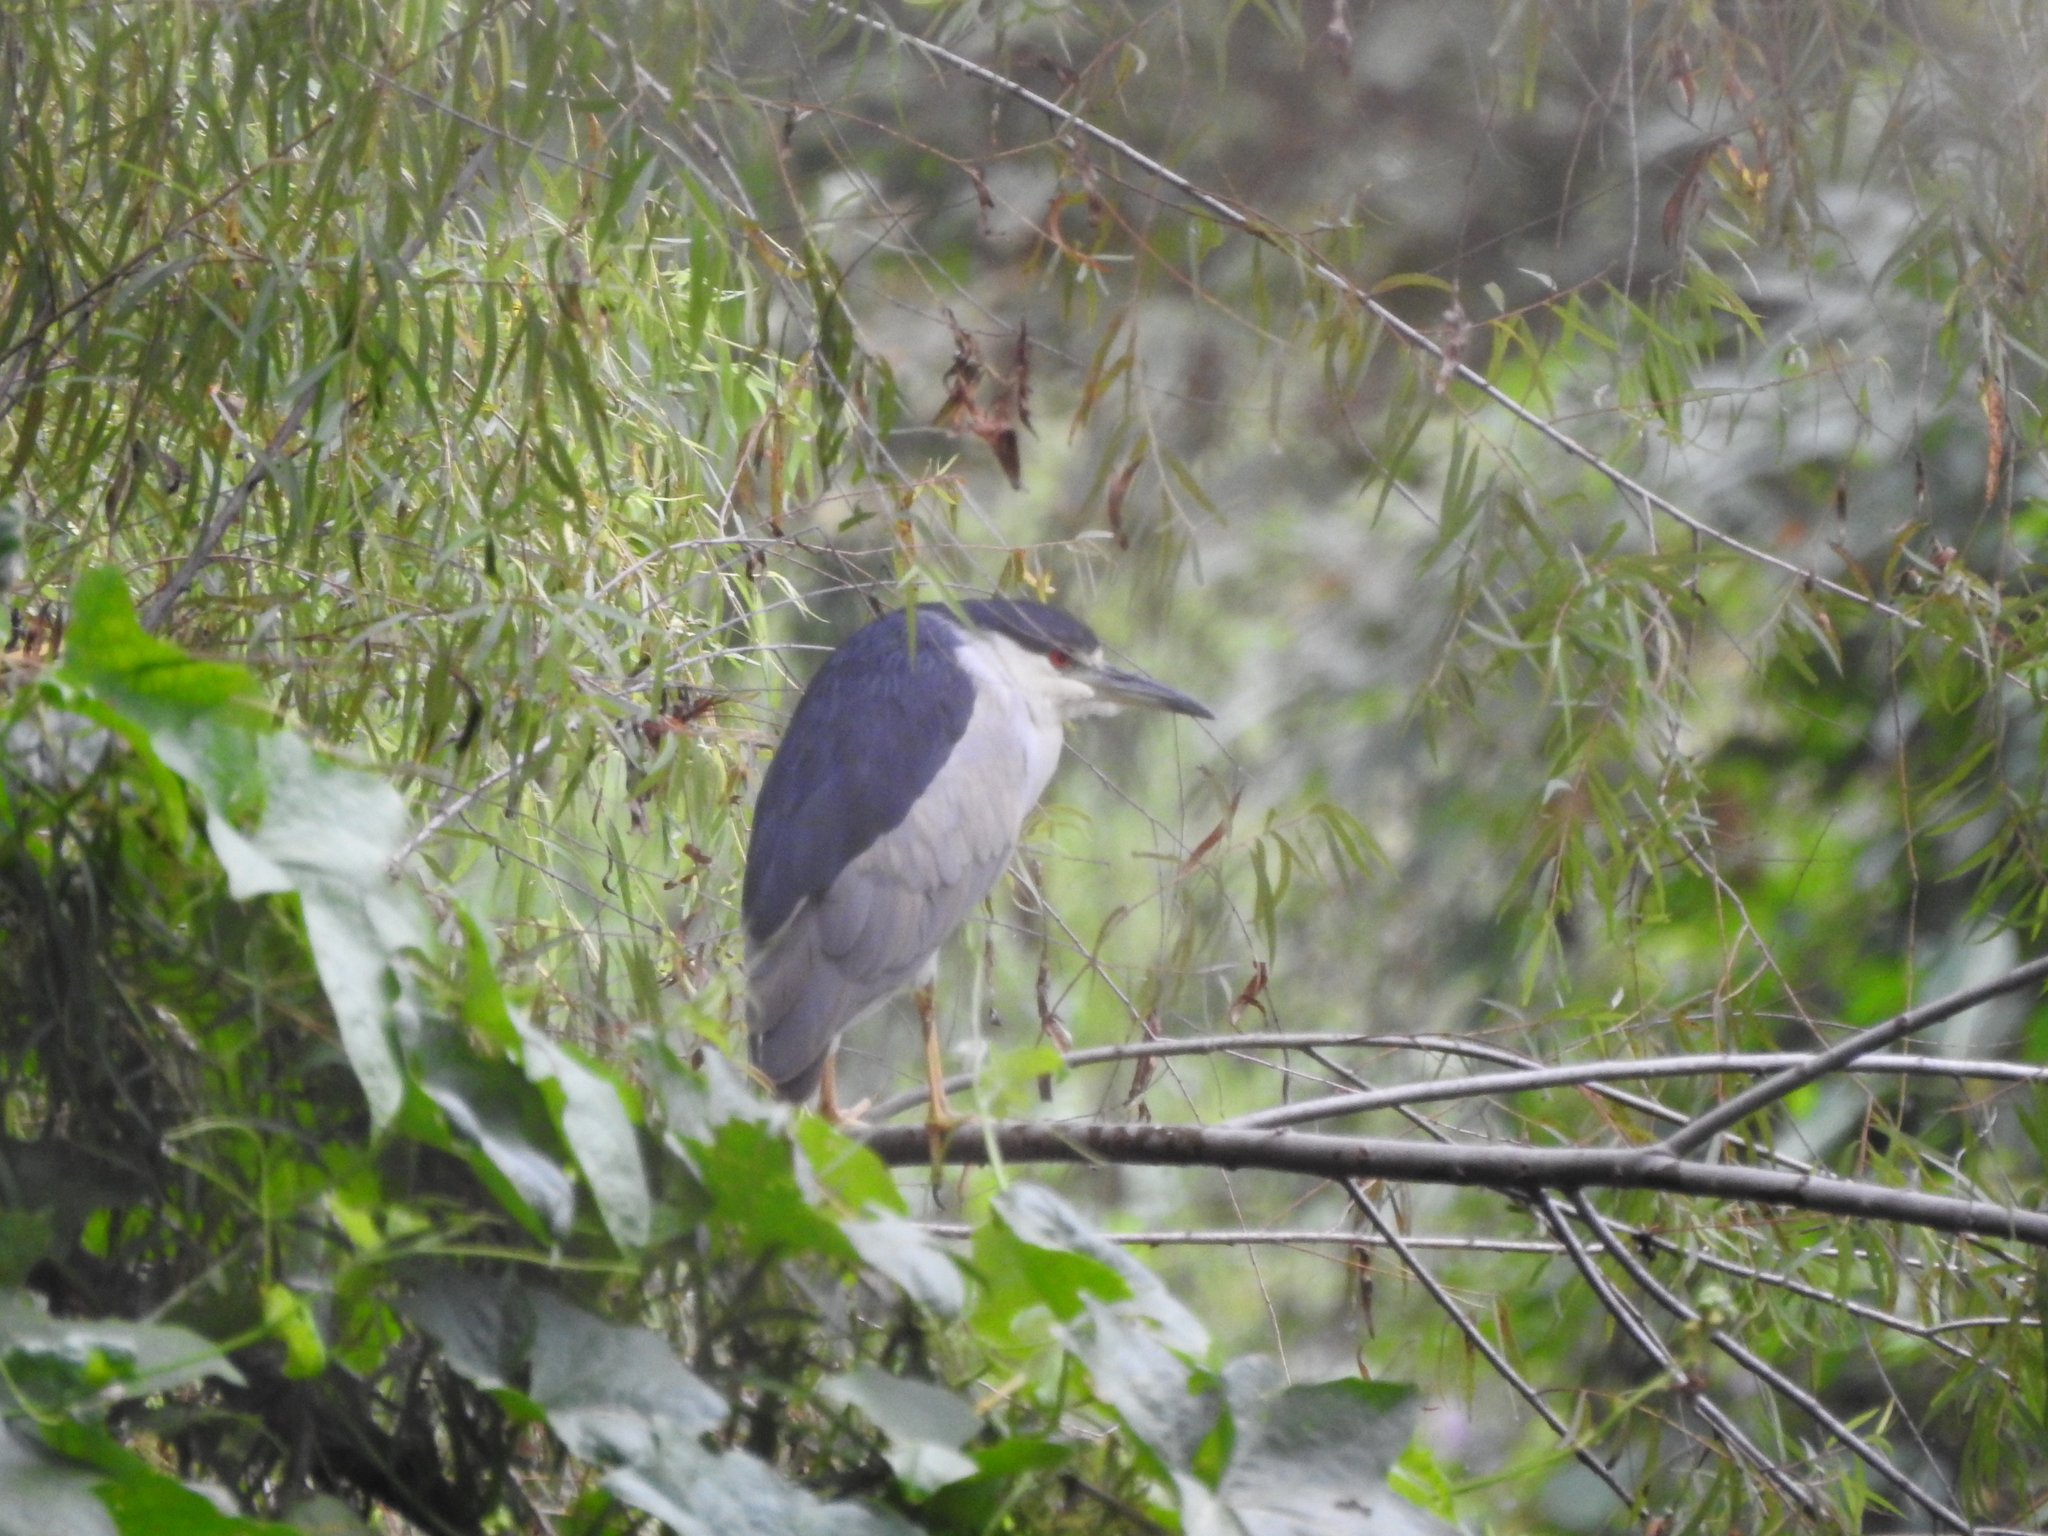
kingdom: Animalia
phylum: Chordata
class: Aves
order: Pelecaniformes
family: Ardeidae
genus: Nycticorax
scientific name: Nycticorax nycticorax
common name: Black-crowned night heron
